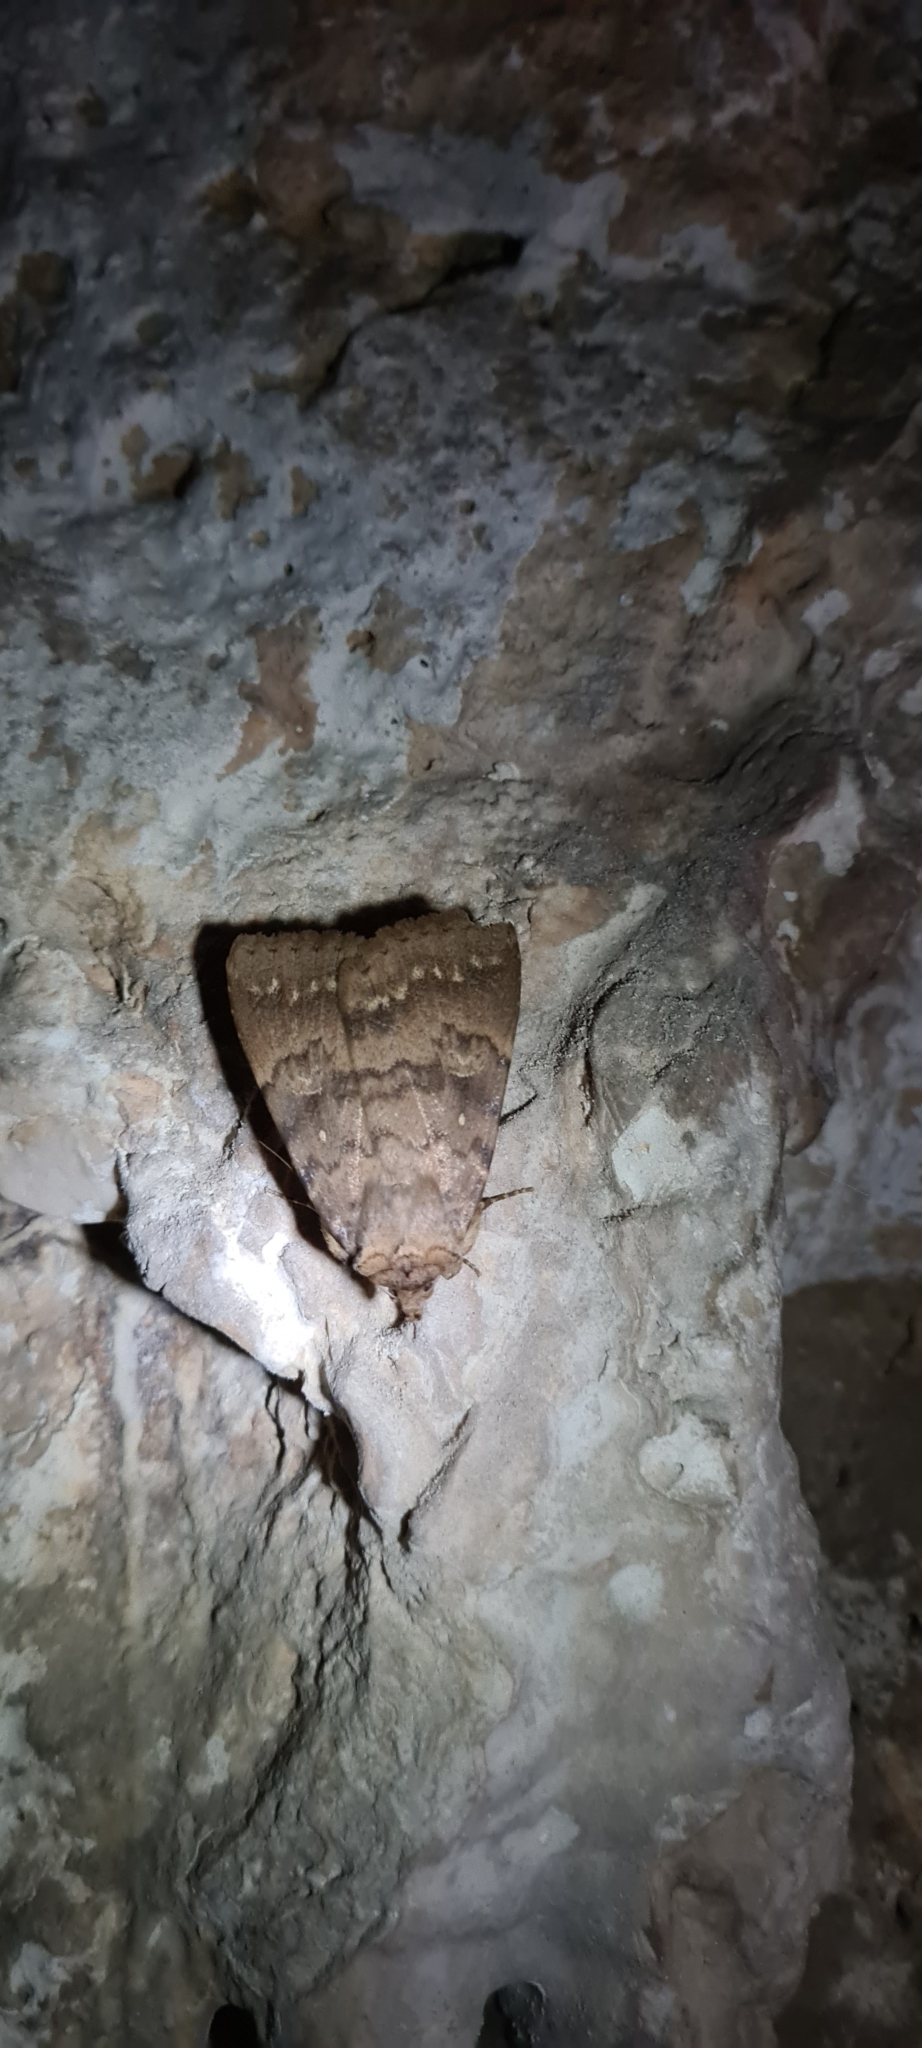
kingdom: Animalia
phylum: Arthropoda
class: Insecta
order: Lepidoptera
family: Erebidae
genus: Apopestes
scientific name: Apopestes spectrum
